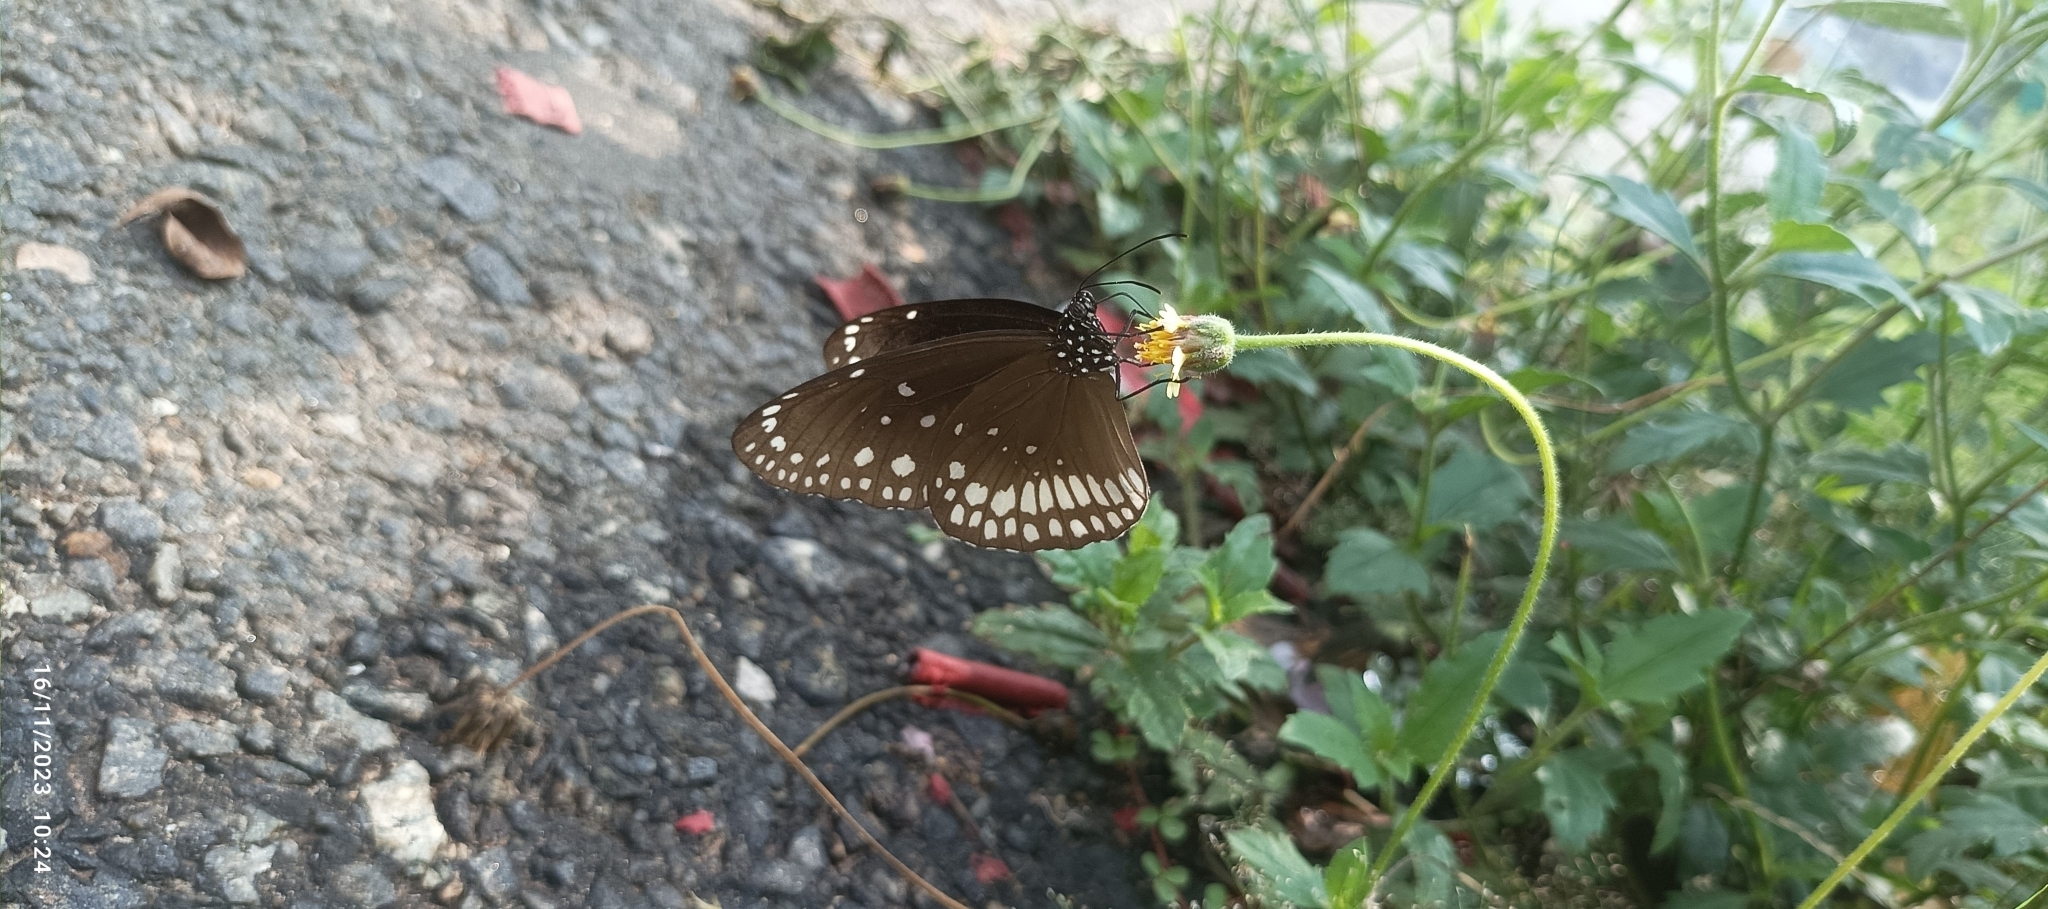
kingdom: Animalia
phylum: Arthropoda
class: Insecta
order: Lepidoptera
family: Nymphalidae
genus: Euploea
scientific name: Euploea core
